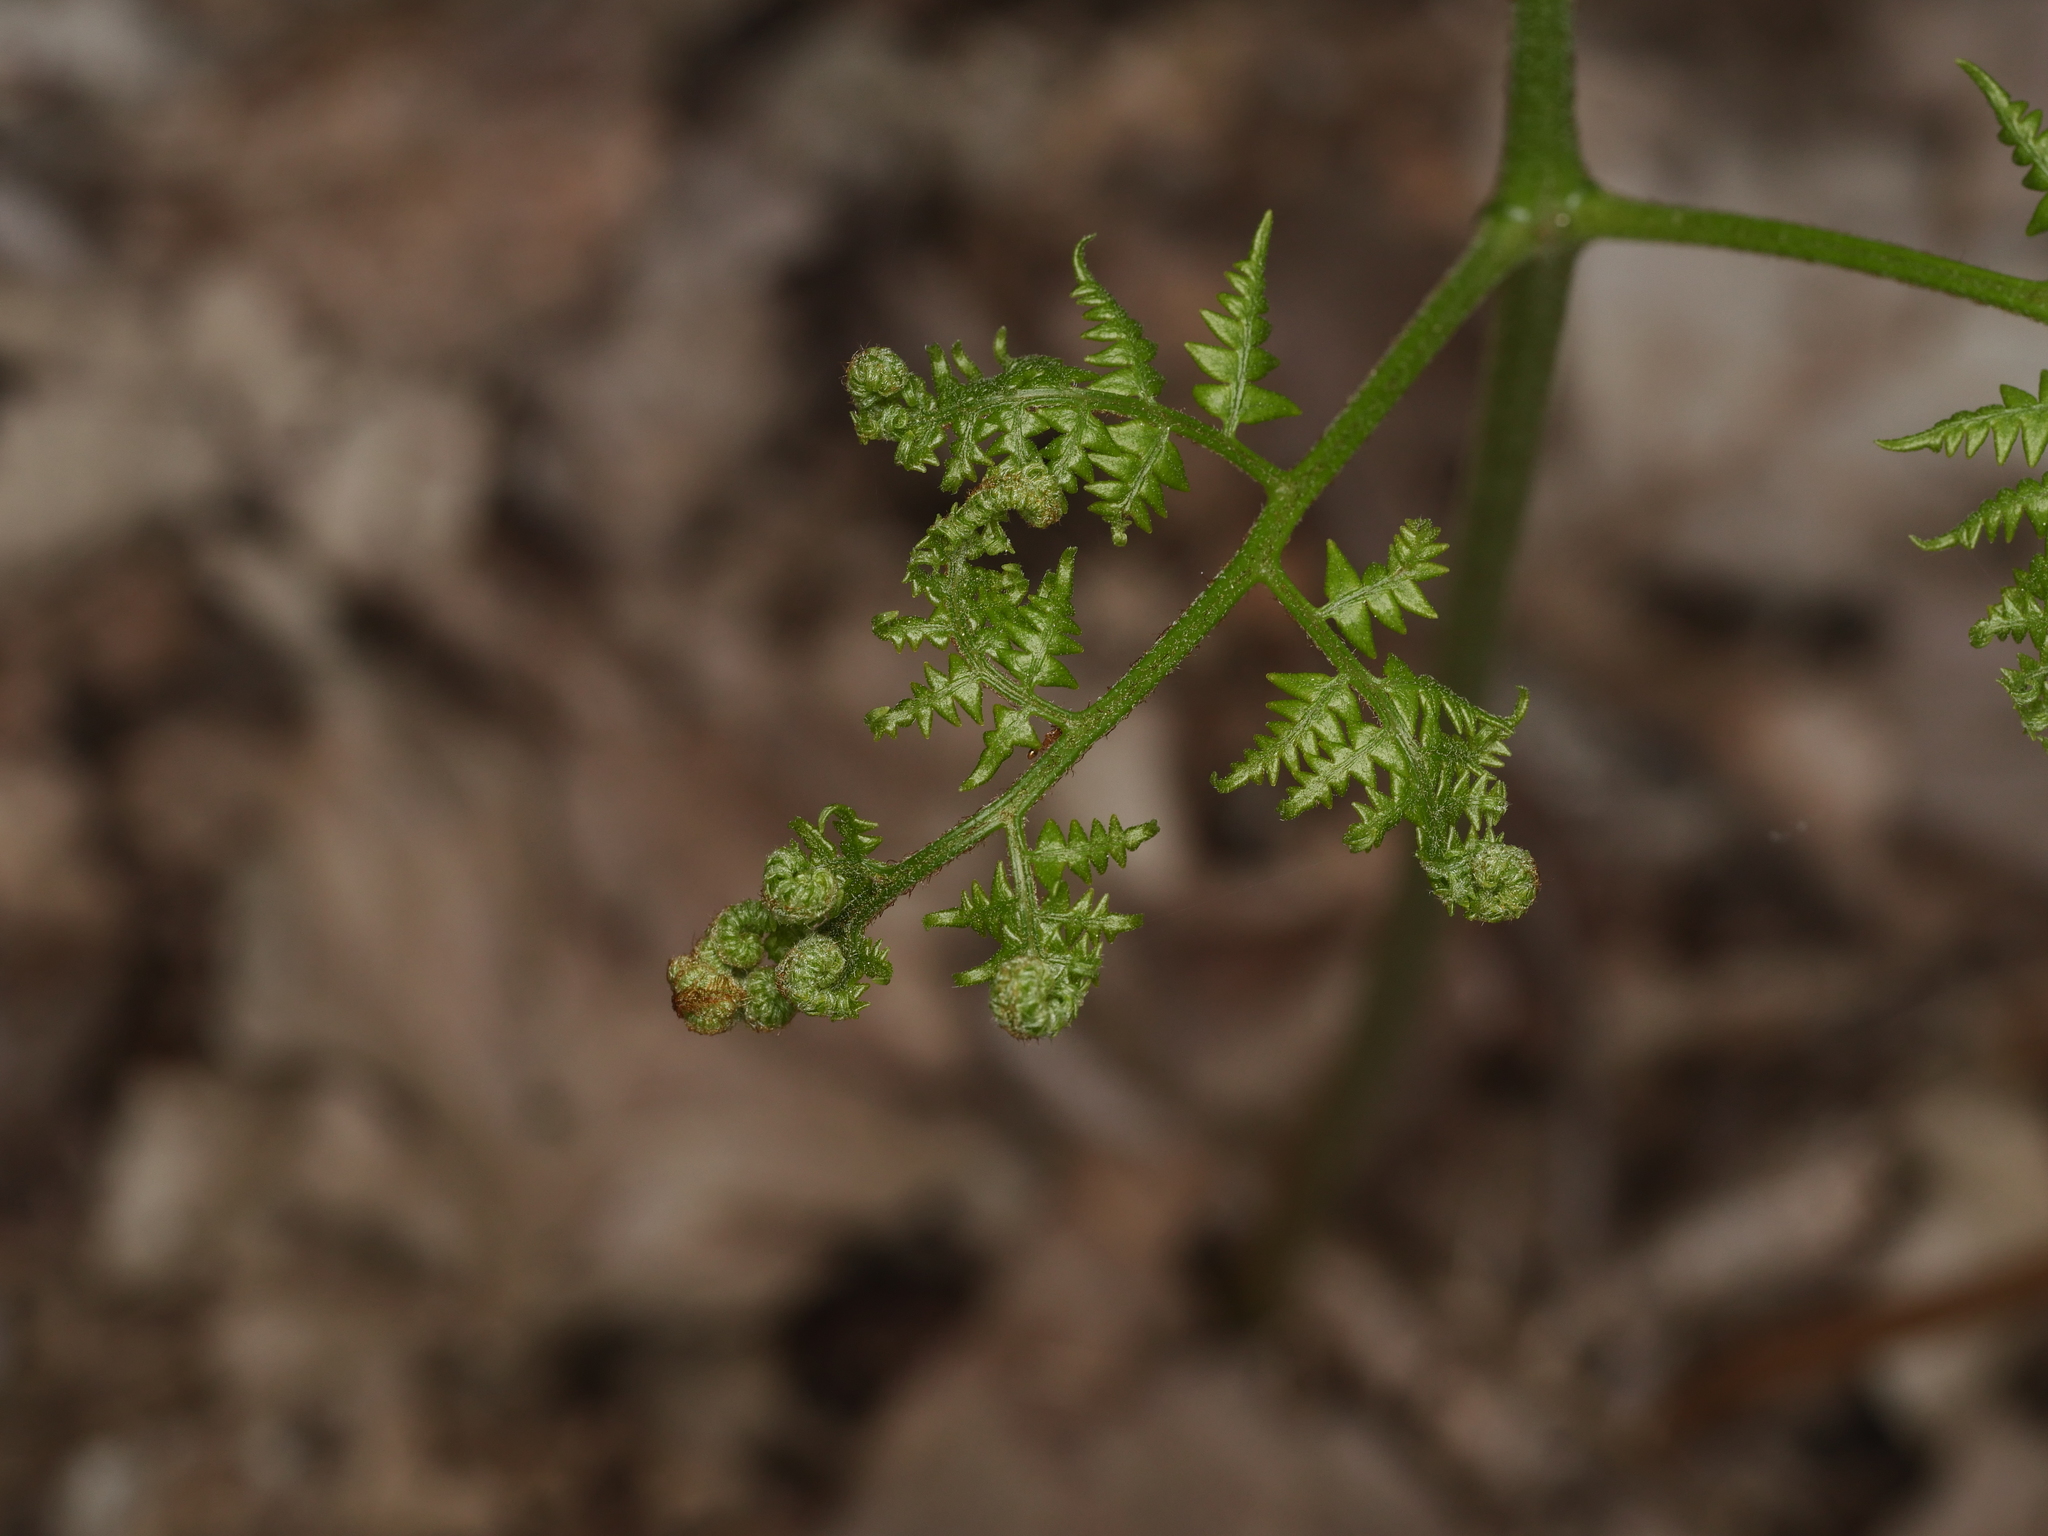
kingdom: Plantae
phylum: Tracheophyta
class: Polypodiopsida
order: Polypodiales
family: Dennstaedtiaceae
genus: Pteridium
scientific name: Pteridium aquilinum
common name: Bracken
